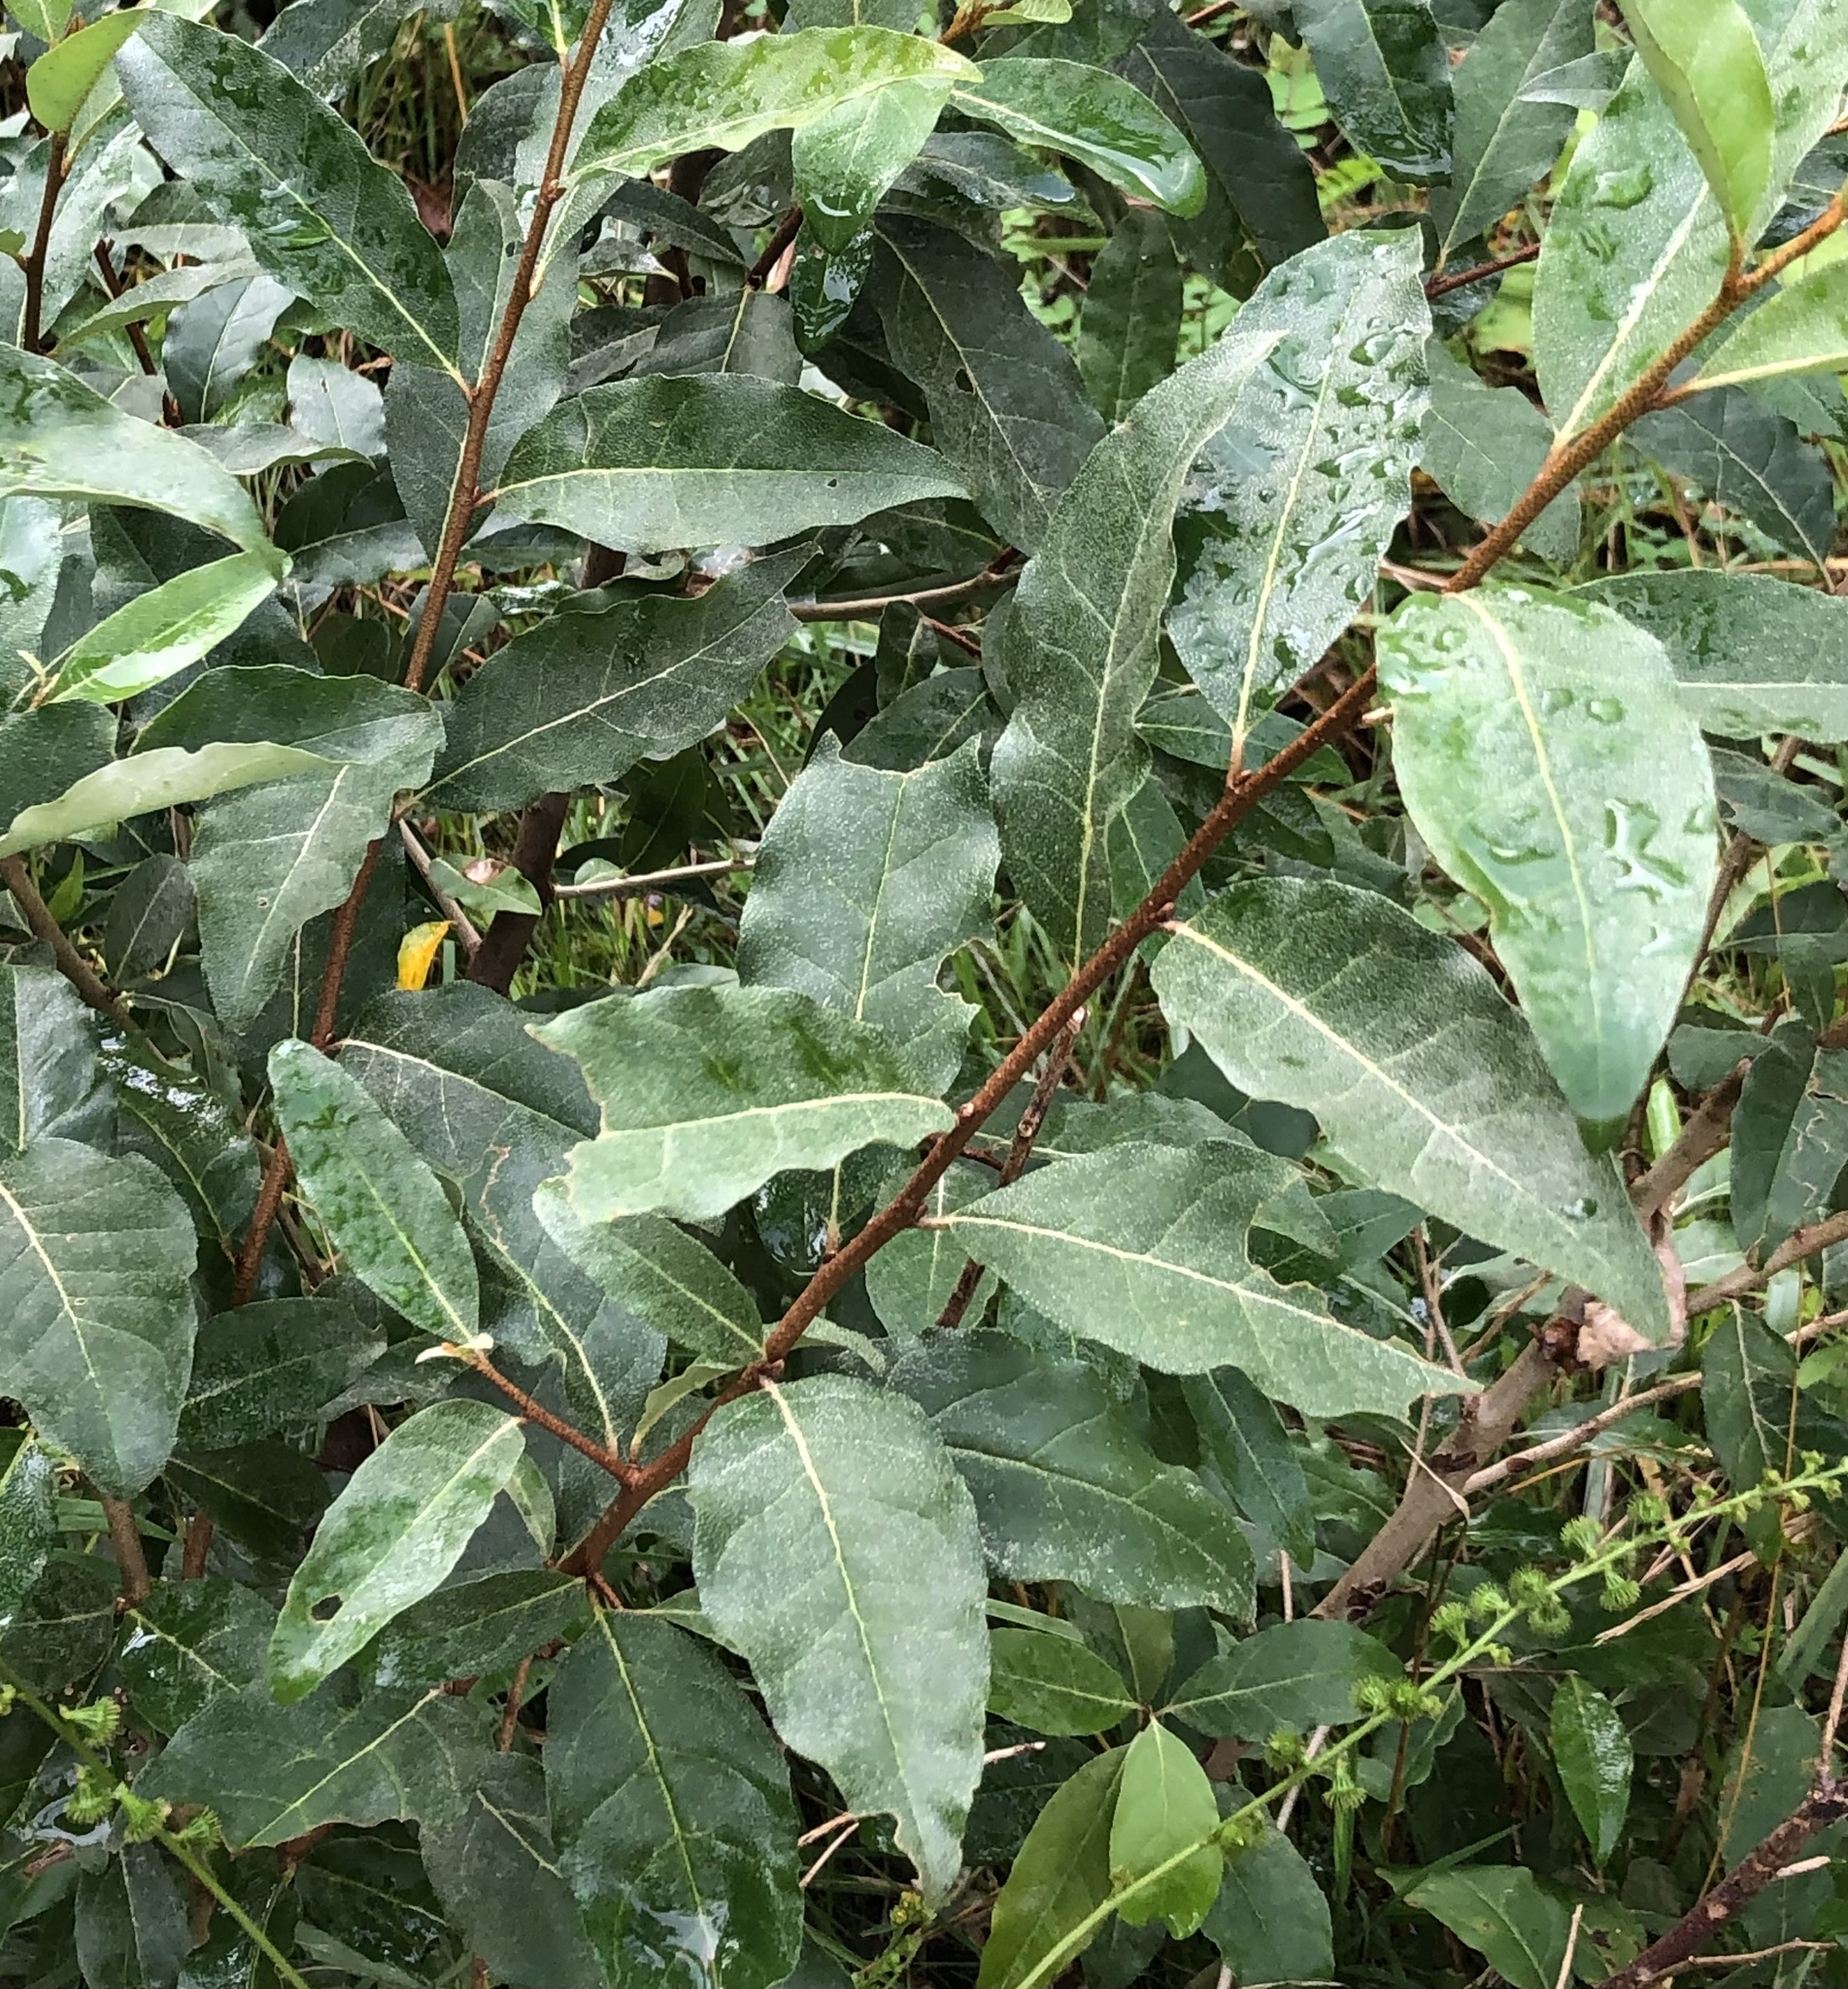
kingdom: Plantae
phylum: Tracheophyta
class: Magnoliopsida
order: Rosales
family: Elaeagnaceae
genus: Elaeagnus
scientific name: Elaeagnus umbellata
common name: Autumn olive
